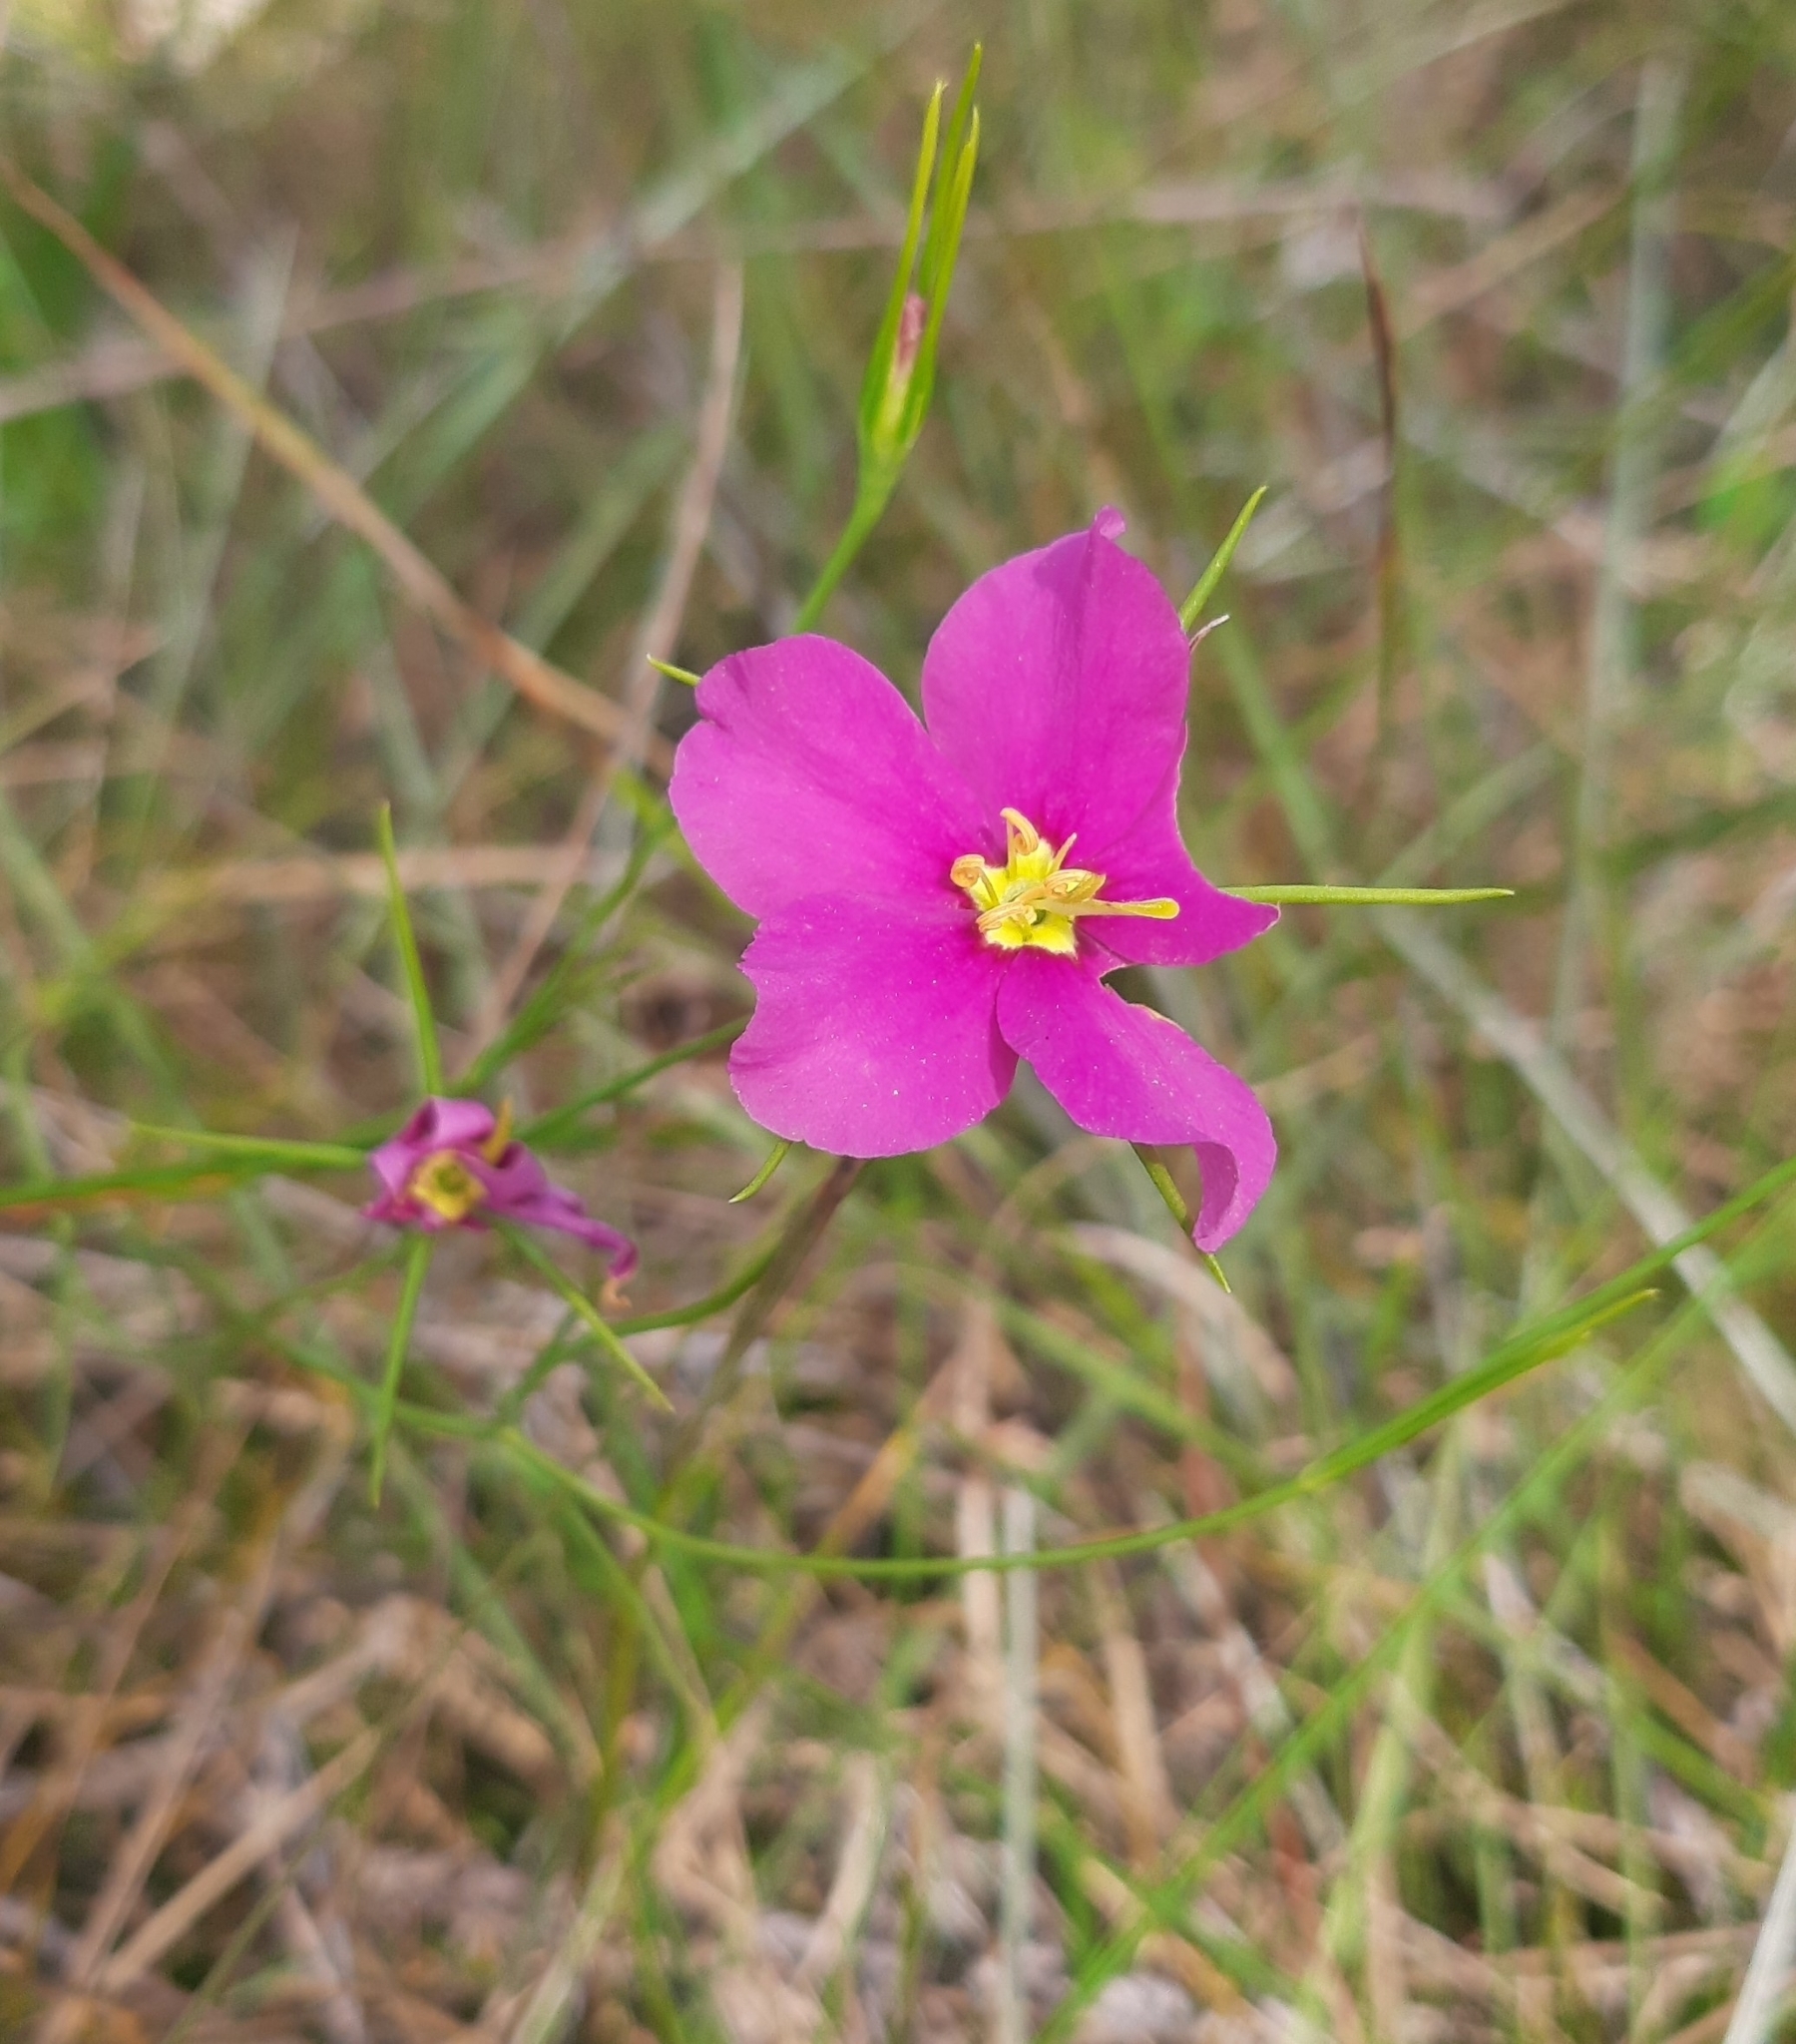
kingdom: Plantae
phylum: Tracheophyta
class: Magnoliopsida
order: Gentianales
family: Gentianaceae
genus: Sabatia
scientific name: Sabatia grandiflora
